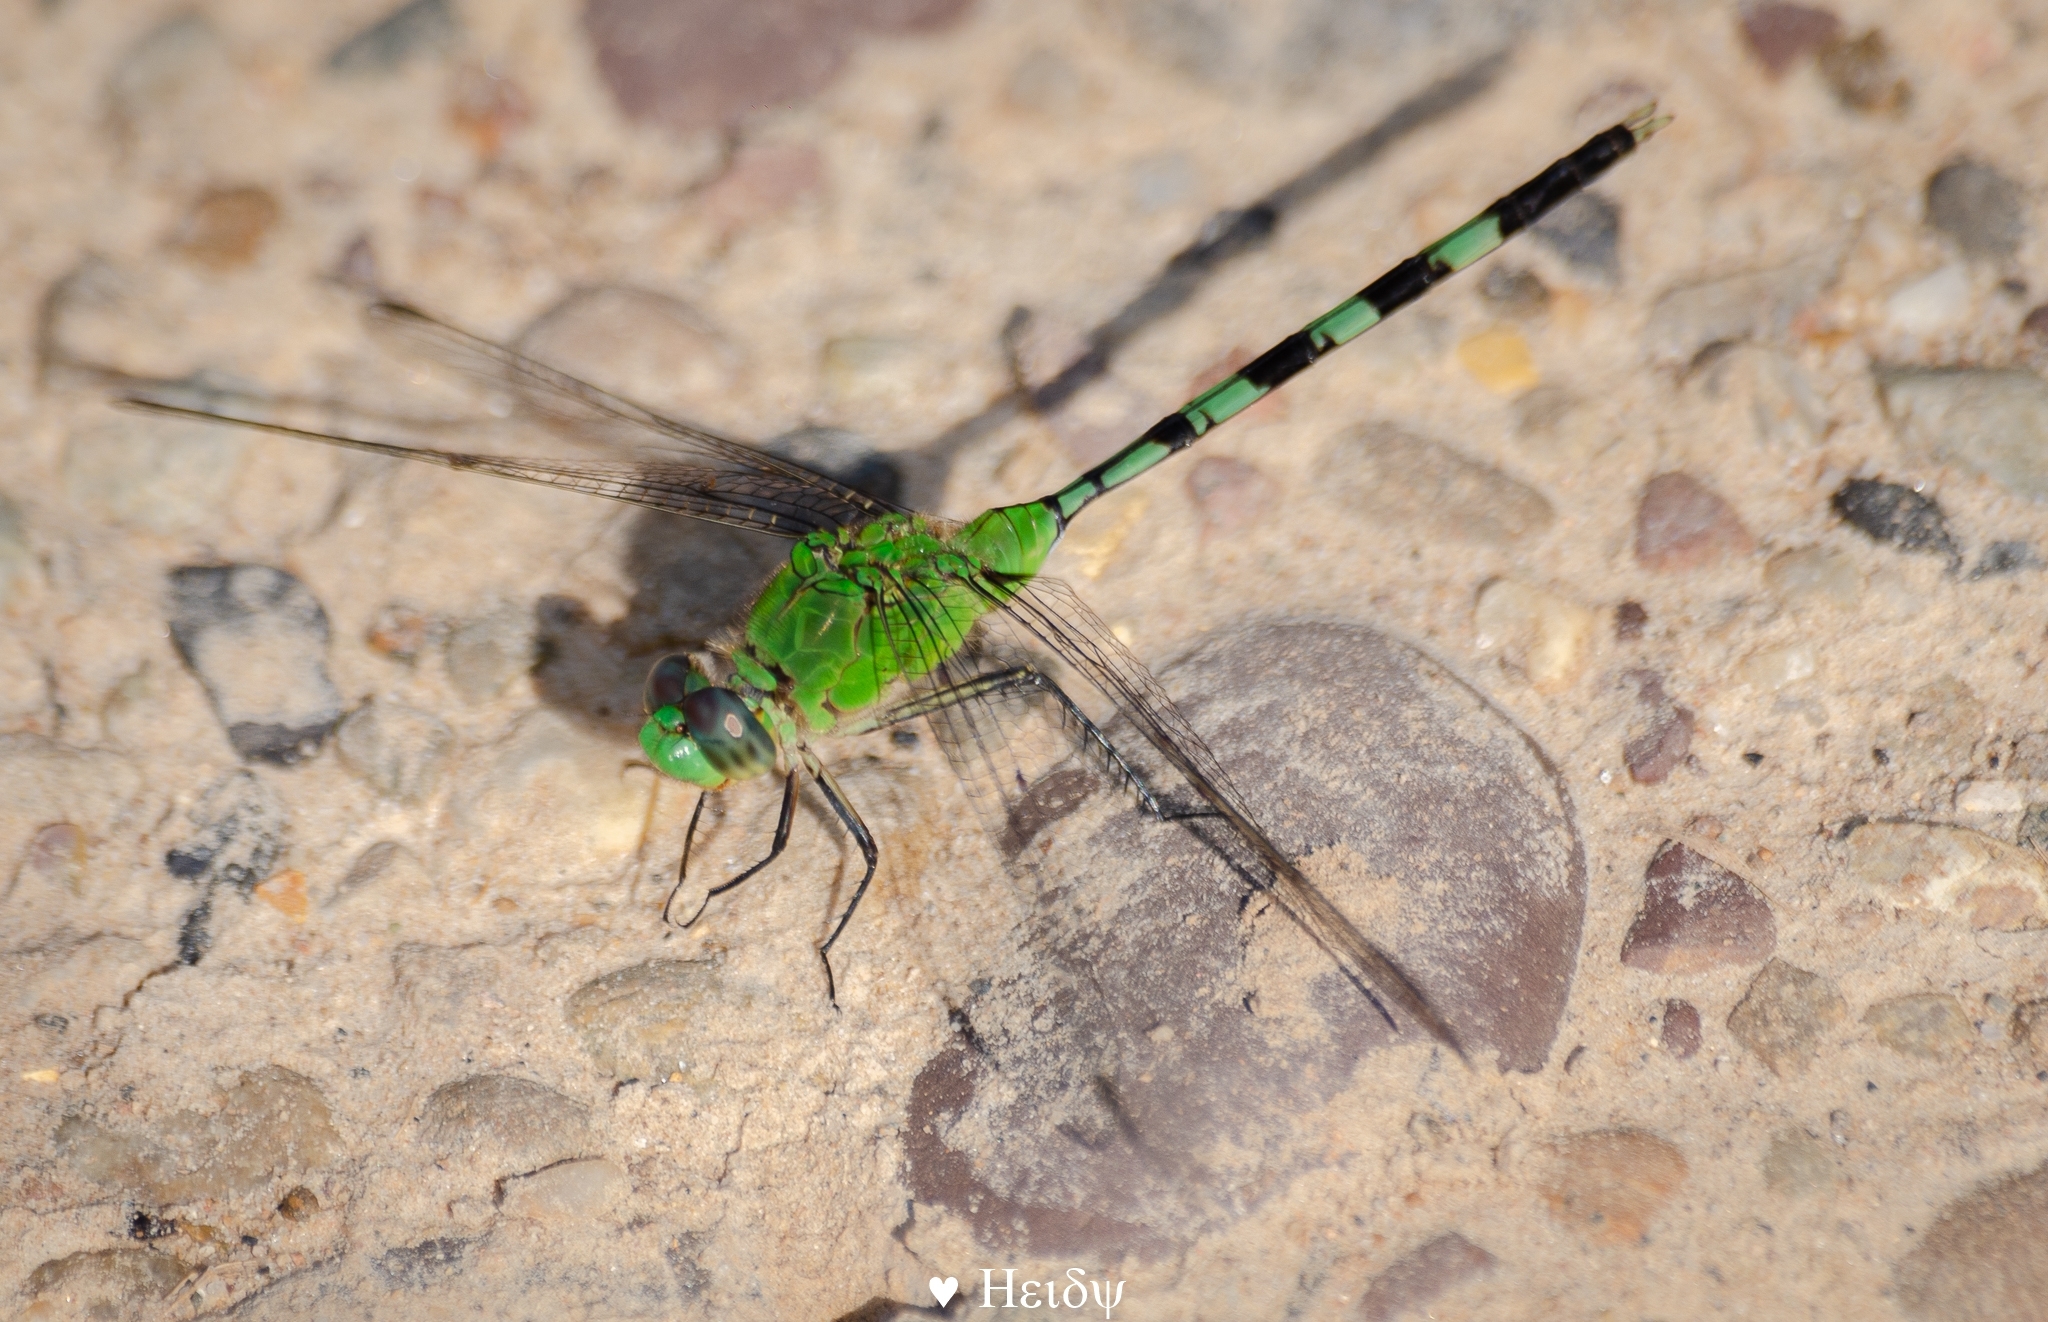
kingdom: Animalia
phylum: Arthropoda
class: Insecta
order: Odonata
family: Libellulidae
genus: Erythemis
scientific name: Erythemis vesiculosa
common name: Great pondhawk
